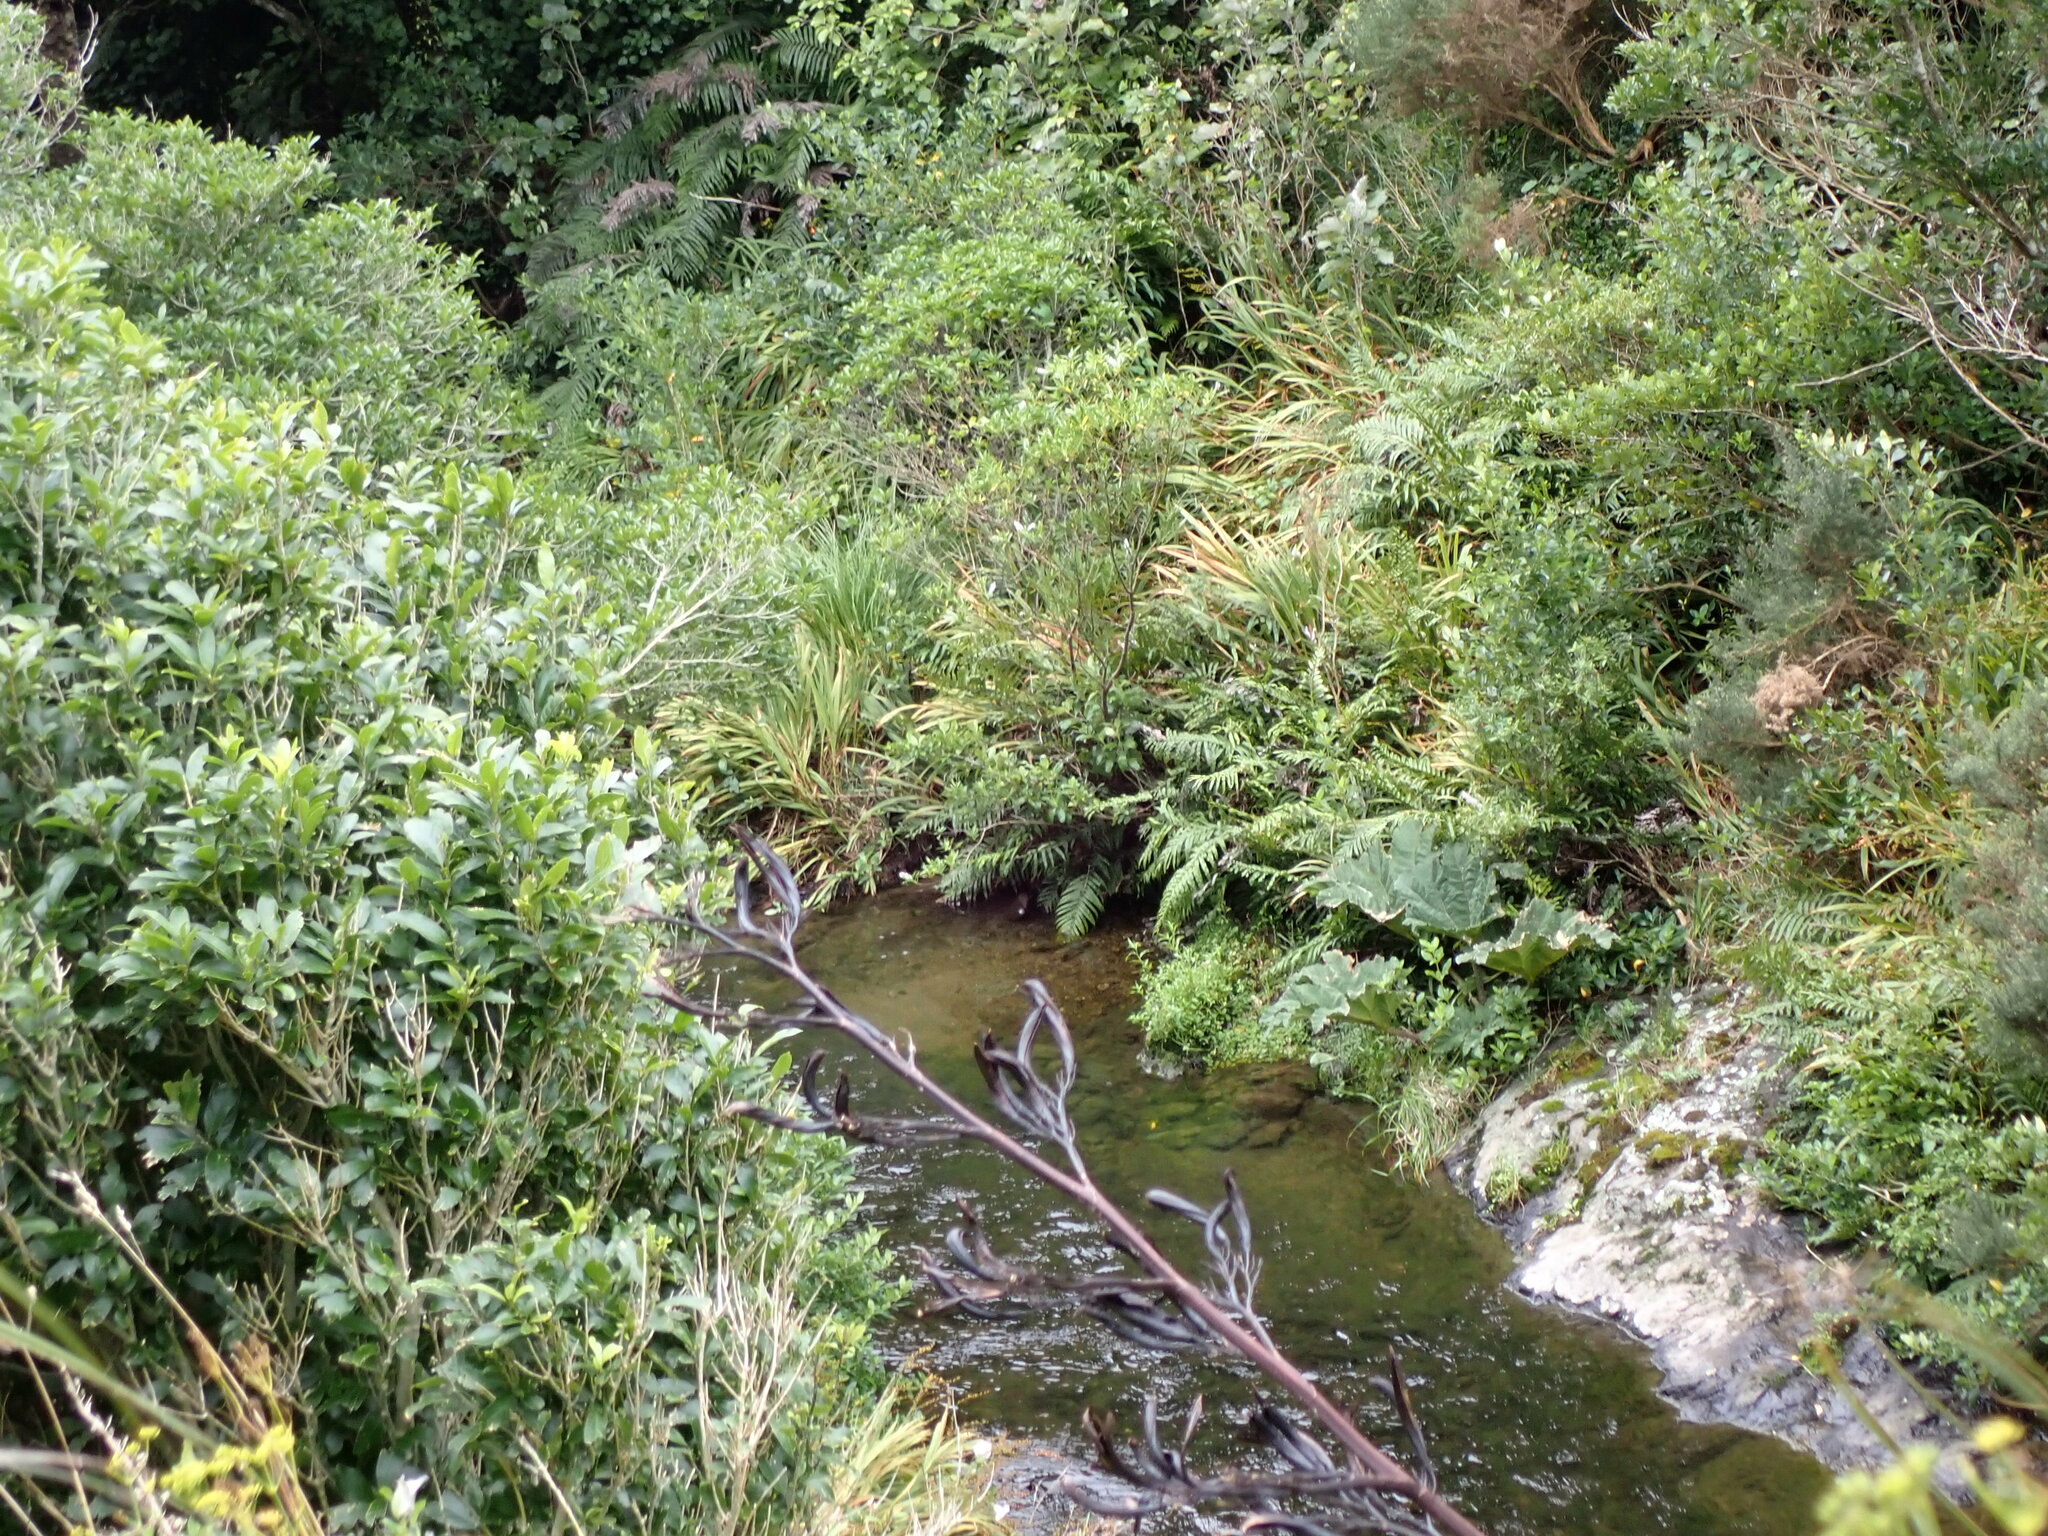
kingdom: Plantae
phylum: Tracheophyta
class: Magnoliopsida
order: Gunnerales
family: Gunneraceae
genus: Gunnera
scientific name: Gunnera tinctoria
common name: Giant-rhubarb
